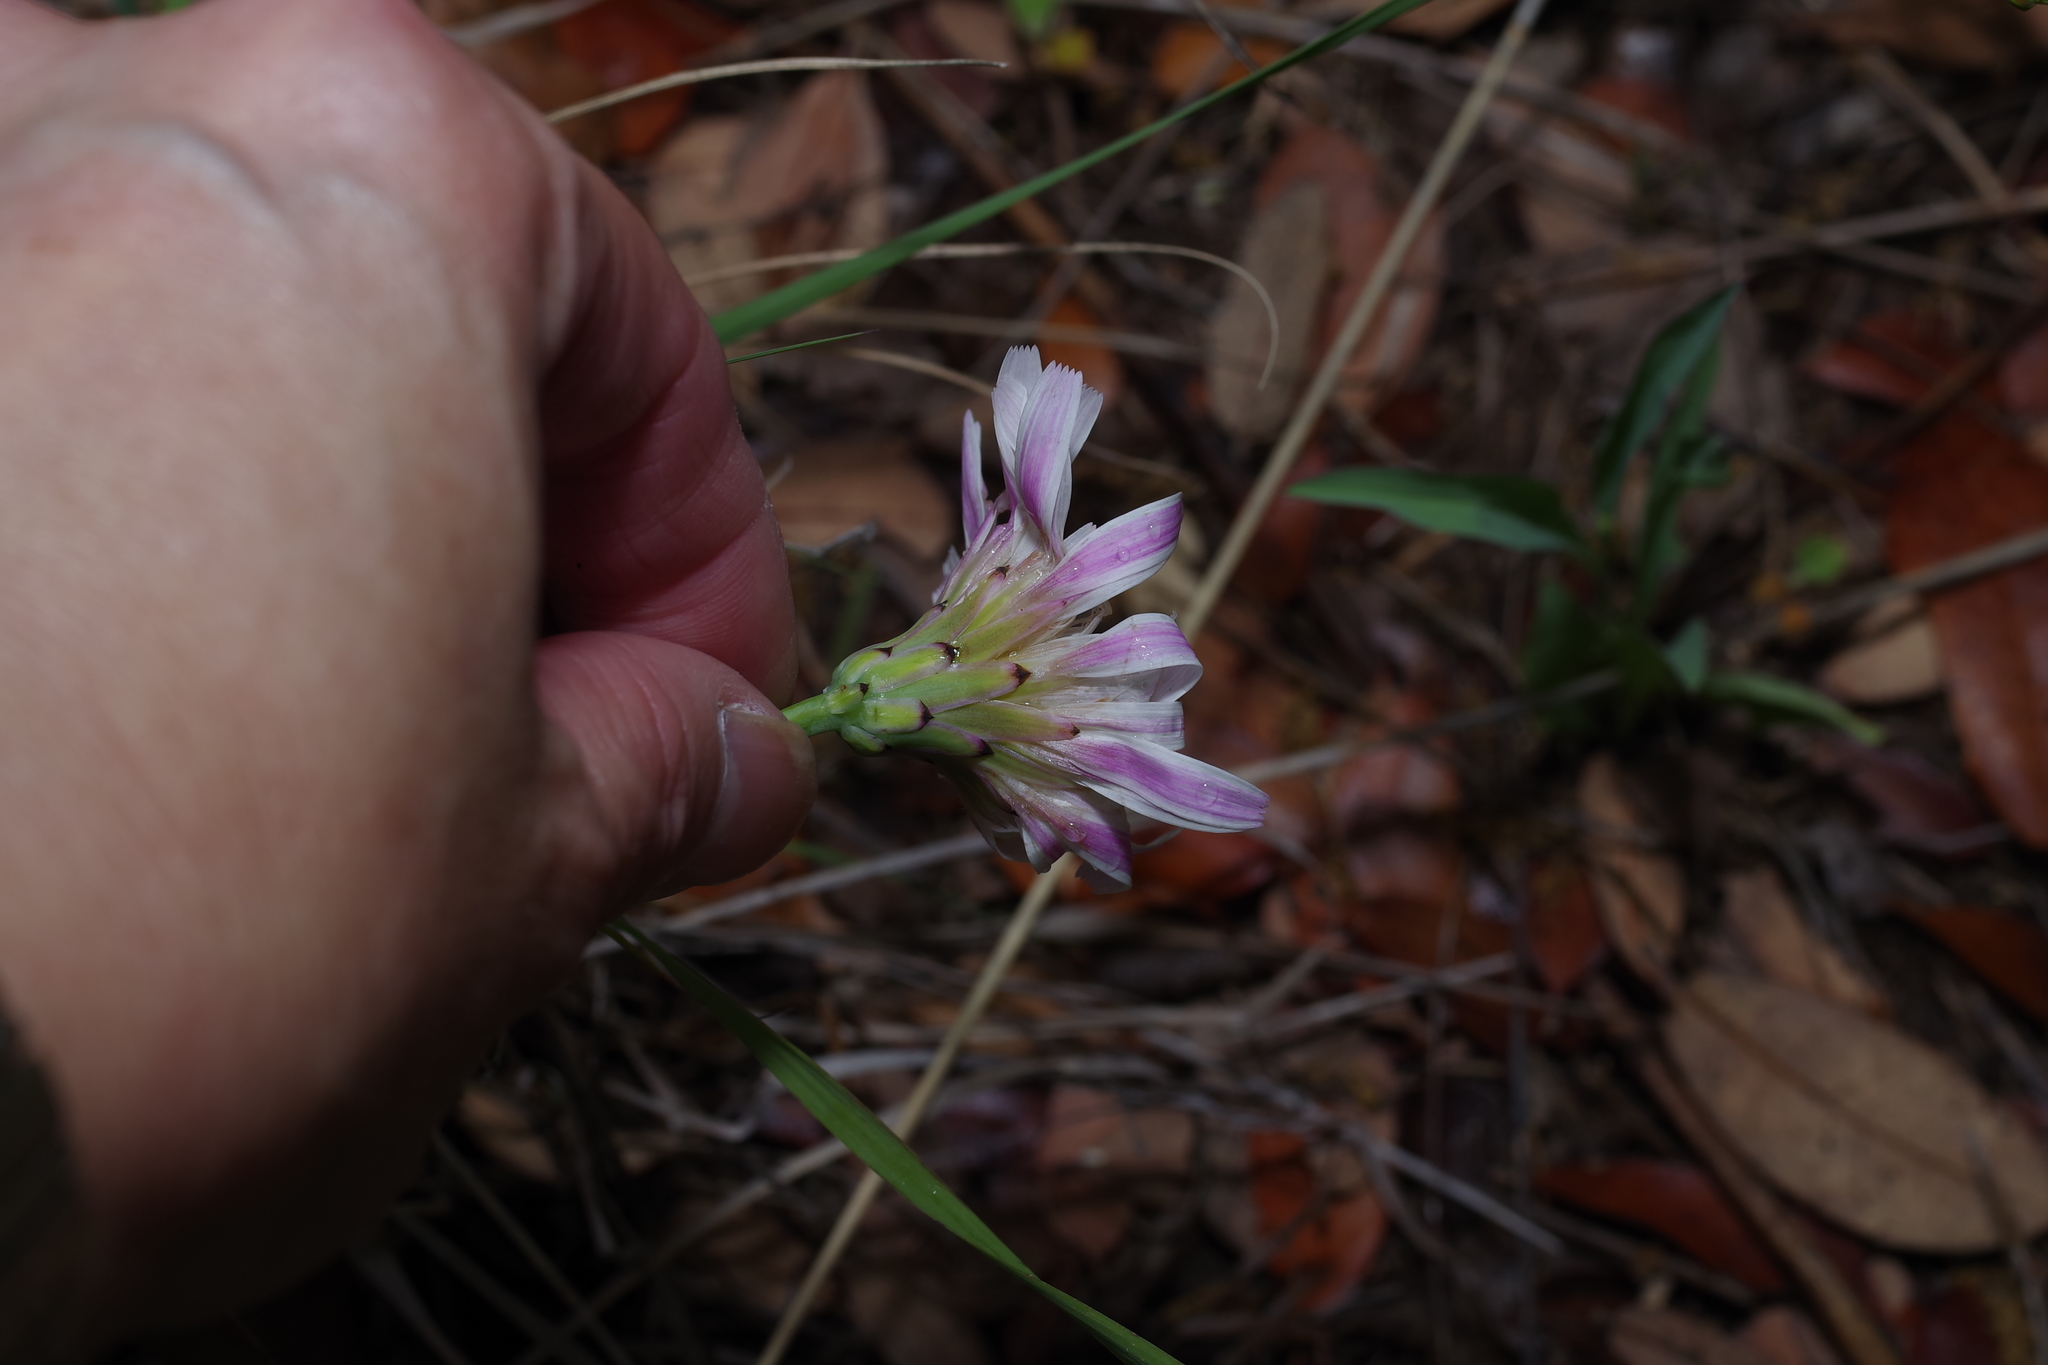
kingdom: Plantae
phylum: Tracheophyta
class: Magnoliopsida
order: Asterales
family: Asteraceae
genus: Pinaropappus
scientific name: Pinaropappus roseus
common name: Rock-lettuce
